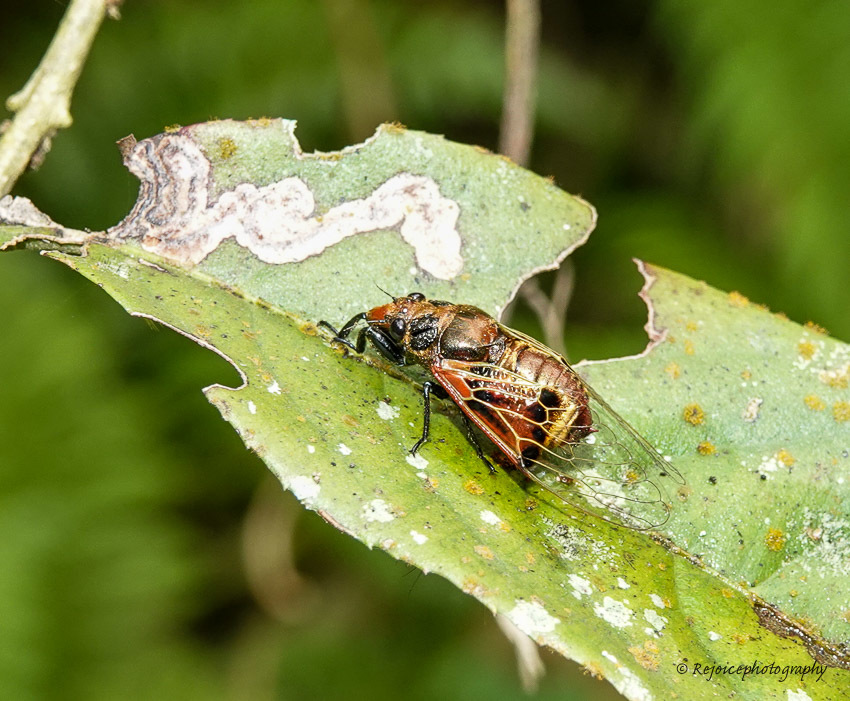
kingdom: Animalia
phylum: Arthropoda
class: Insecta
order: Hemiptera
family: Cicadidae
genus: Mogannia
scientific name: Mogannia saucia
